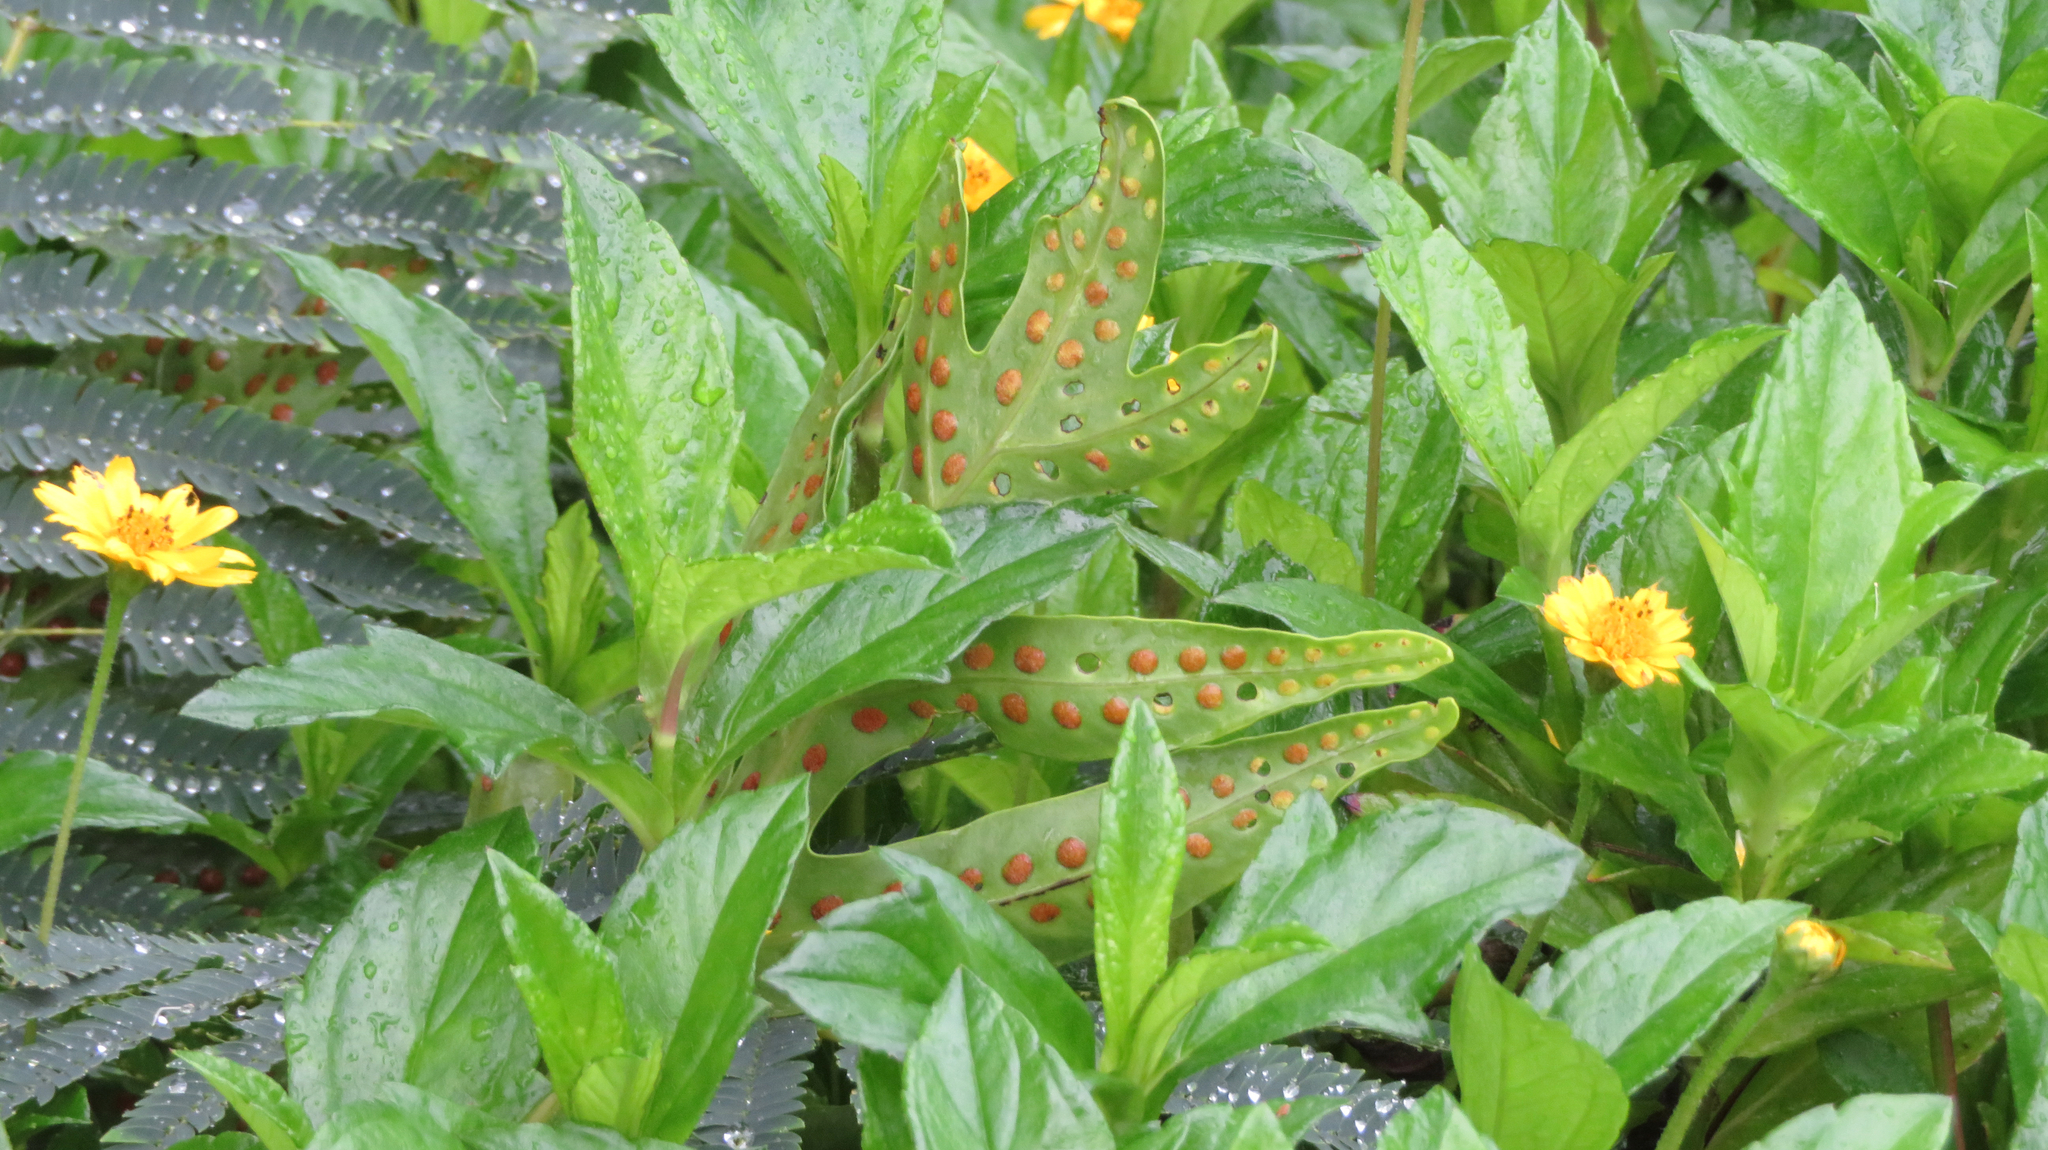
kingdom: Plantae
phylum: Tracheophyta
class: Polypodiopsida
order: Polypodiales
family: Polypodiaceae
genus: Microsorum
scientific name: Microsorum grossum
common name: Musk fern
